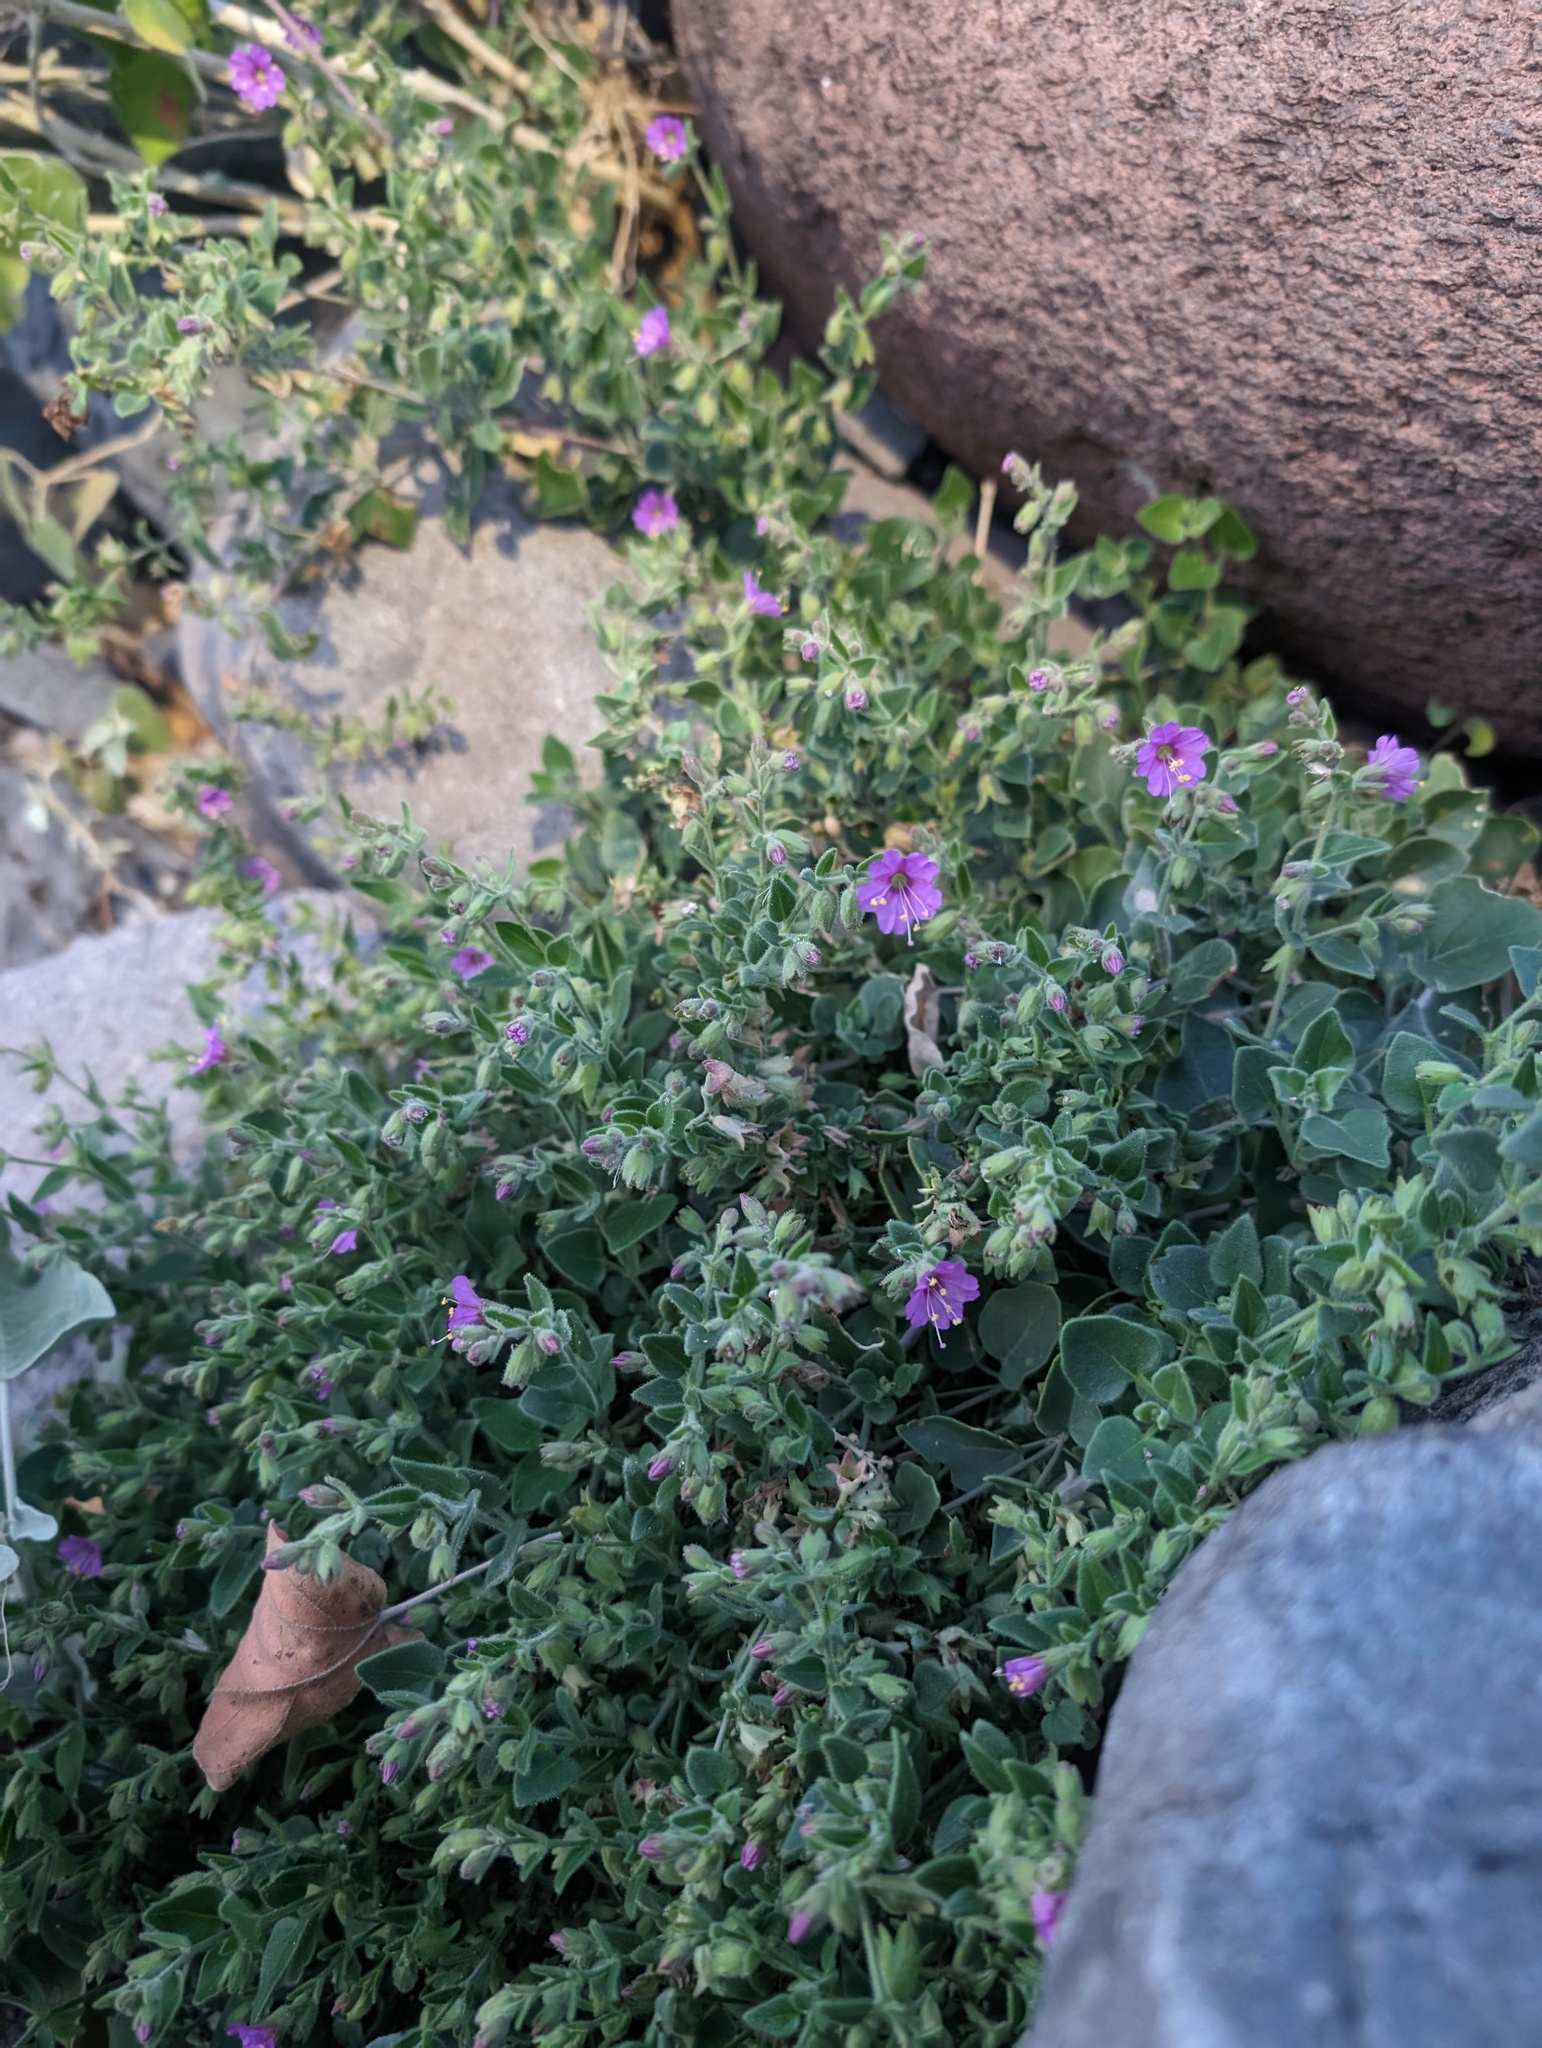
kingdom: Plantae
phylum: Tracheophyta
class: Magnoliopsida
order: Caryophyllales
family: Nyctaginaceae
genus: Mirabilis
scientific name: Mirabilis laevis
